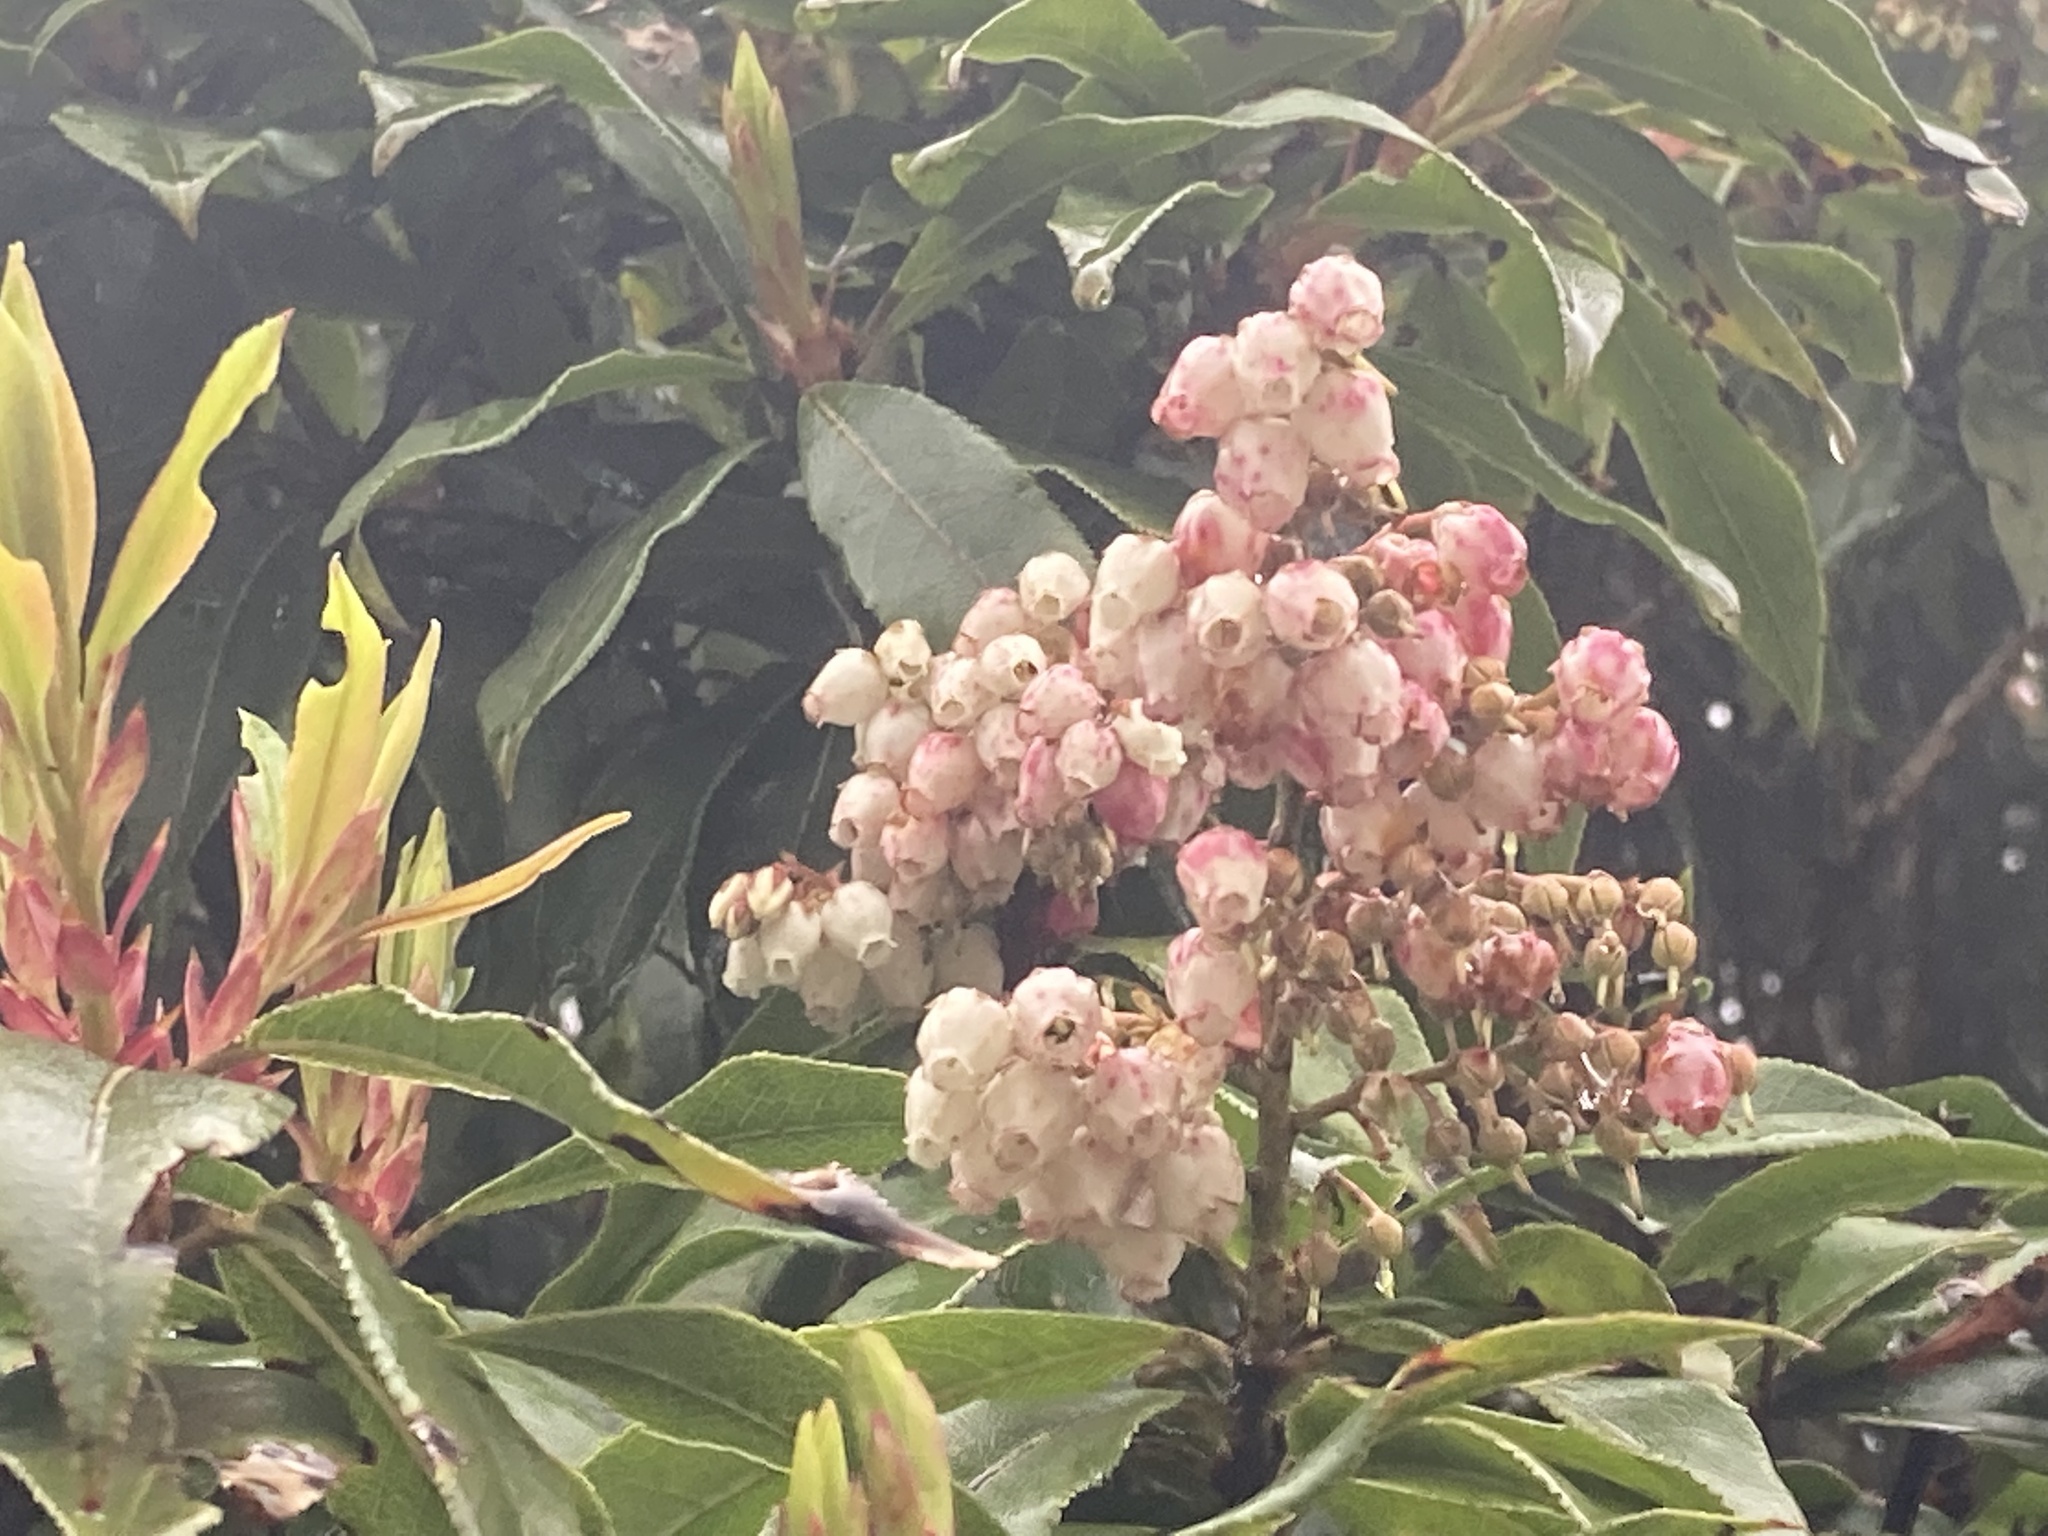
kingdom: Plantae
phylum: Tracheophyta
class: Magnoliopsida
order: Ericales
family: Ericaceae
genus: Pieris
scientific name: Pieris formosa
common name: Formosan pieris
